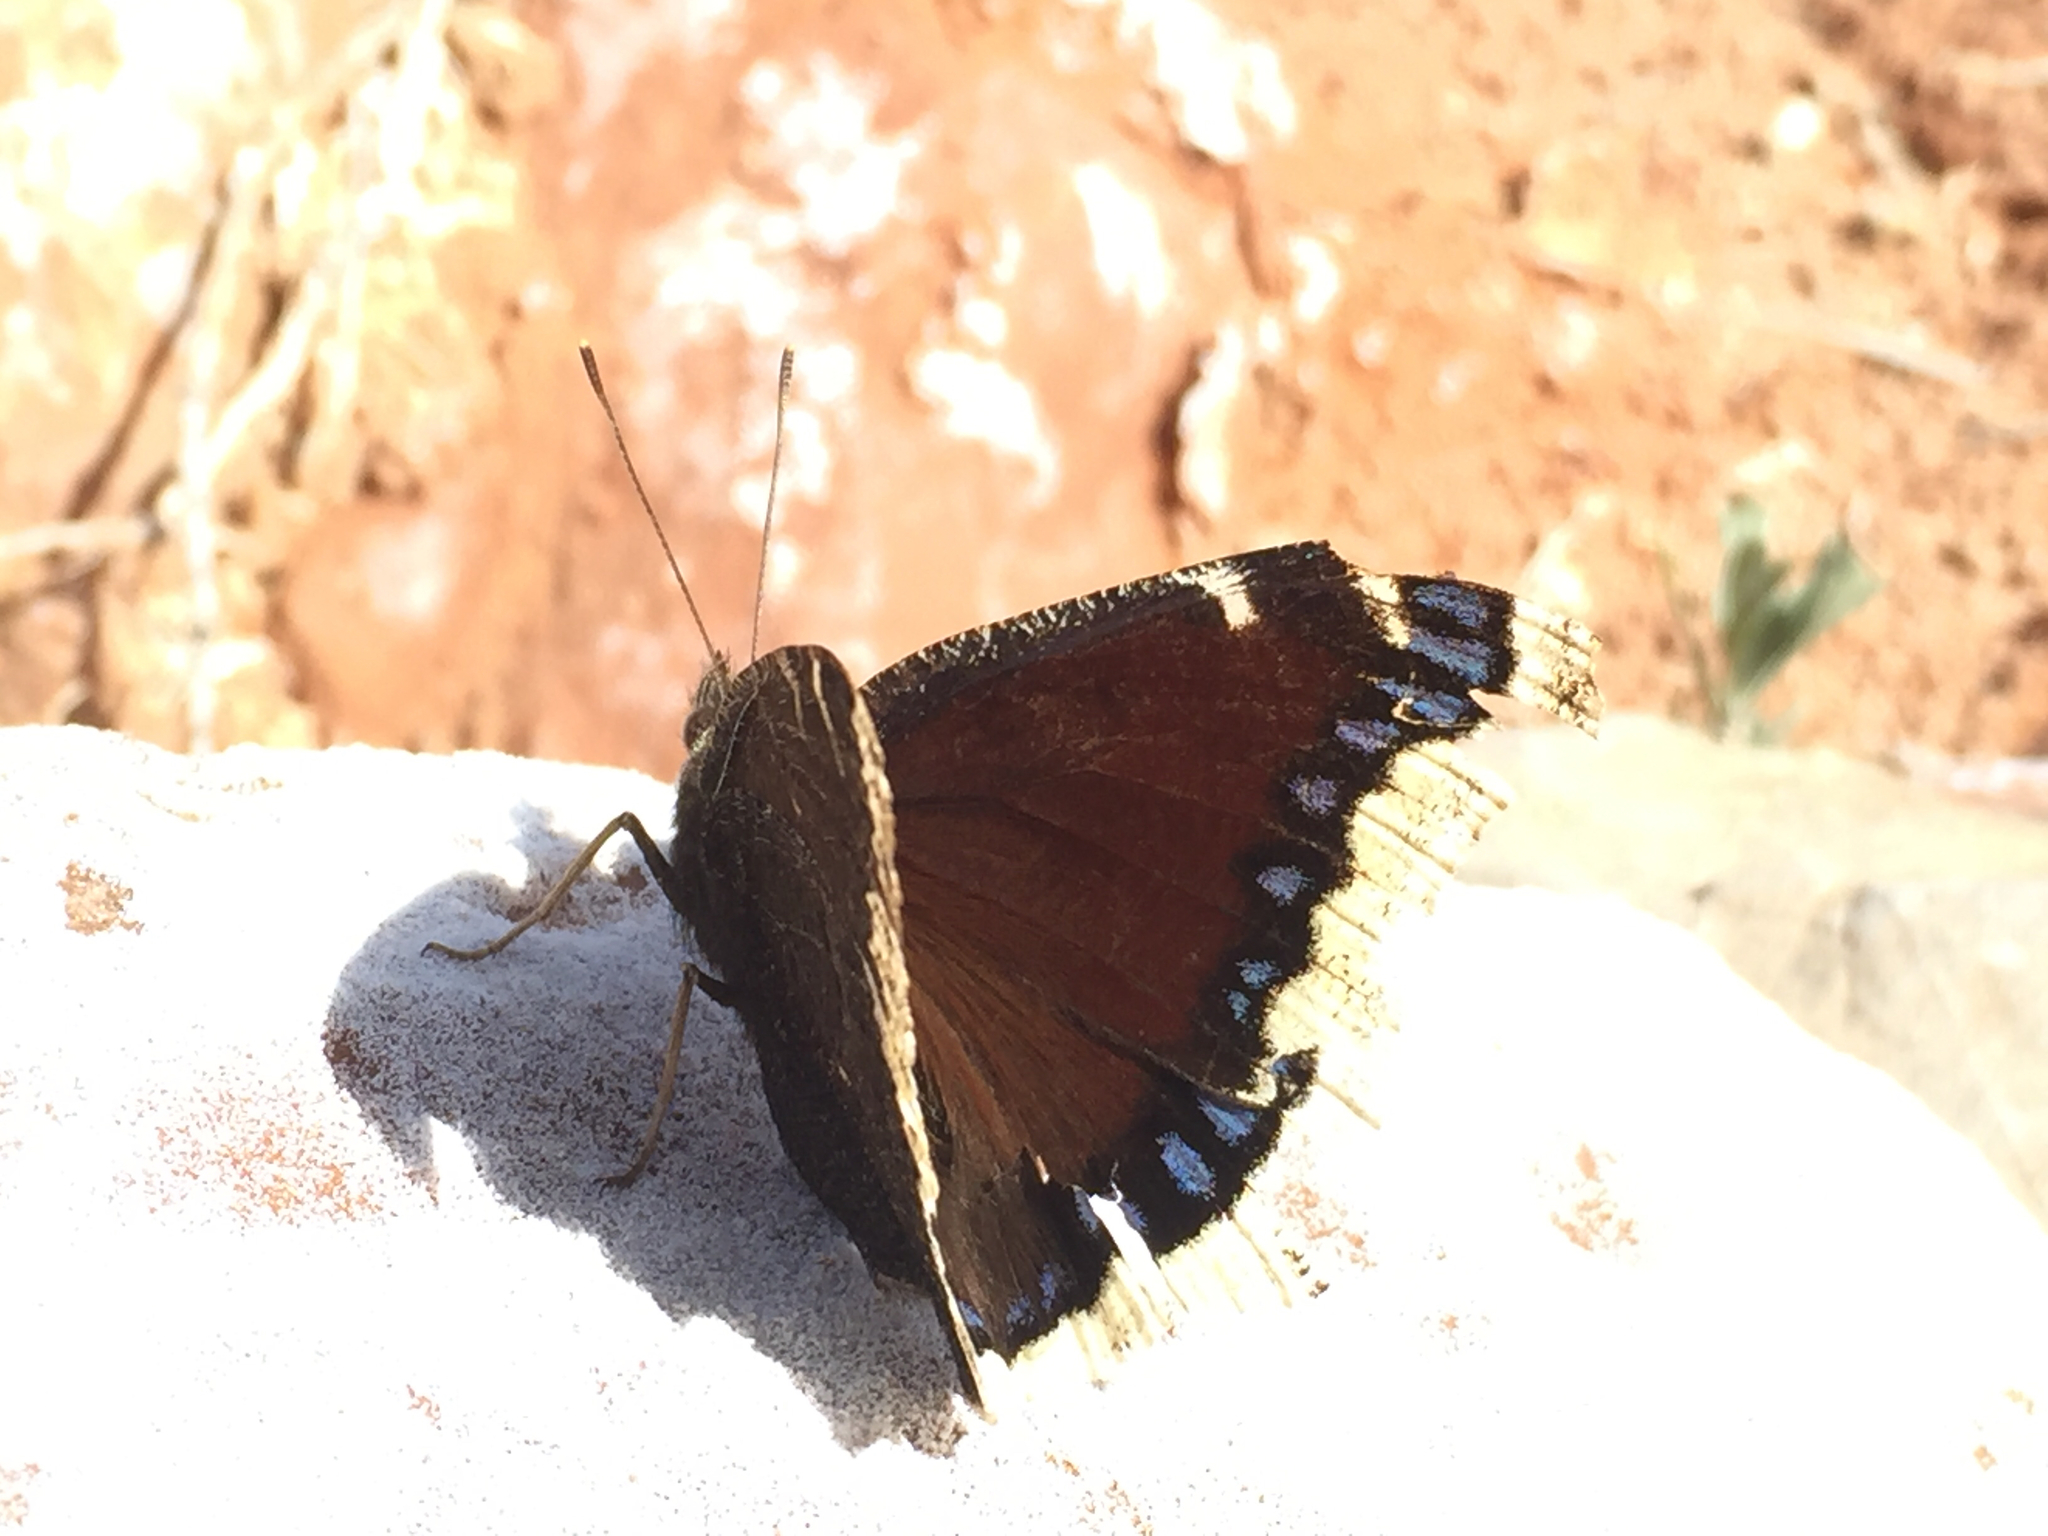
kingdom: Animalia
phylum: Arthropoda
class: Insecta
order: Lepidoptera
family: Nymphalidae
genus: Nymphalis
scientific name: Nymphalis antiopa
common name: Camberwell beauty
